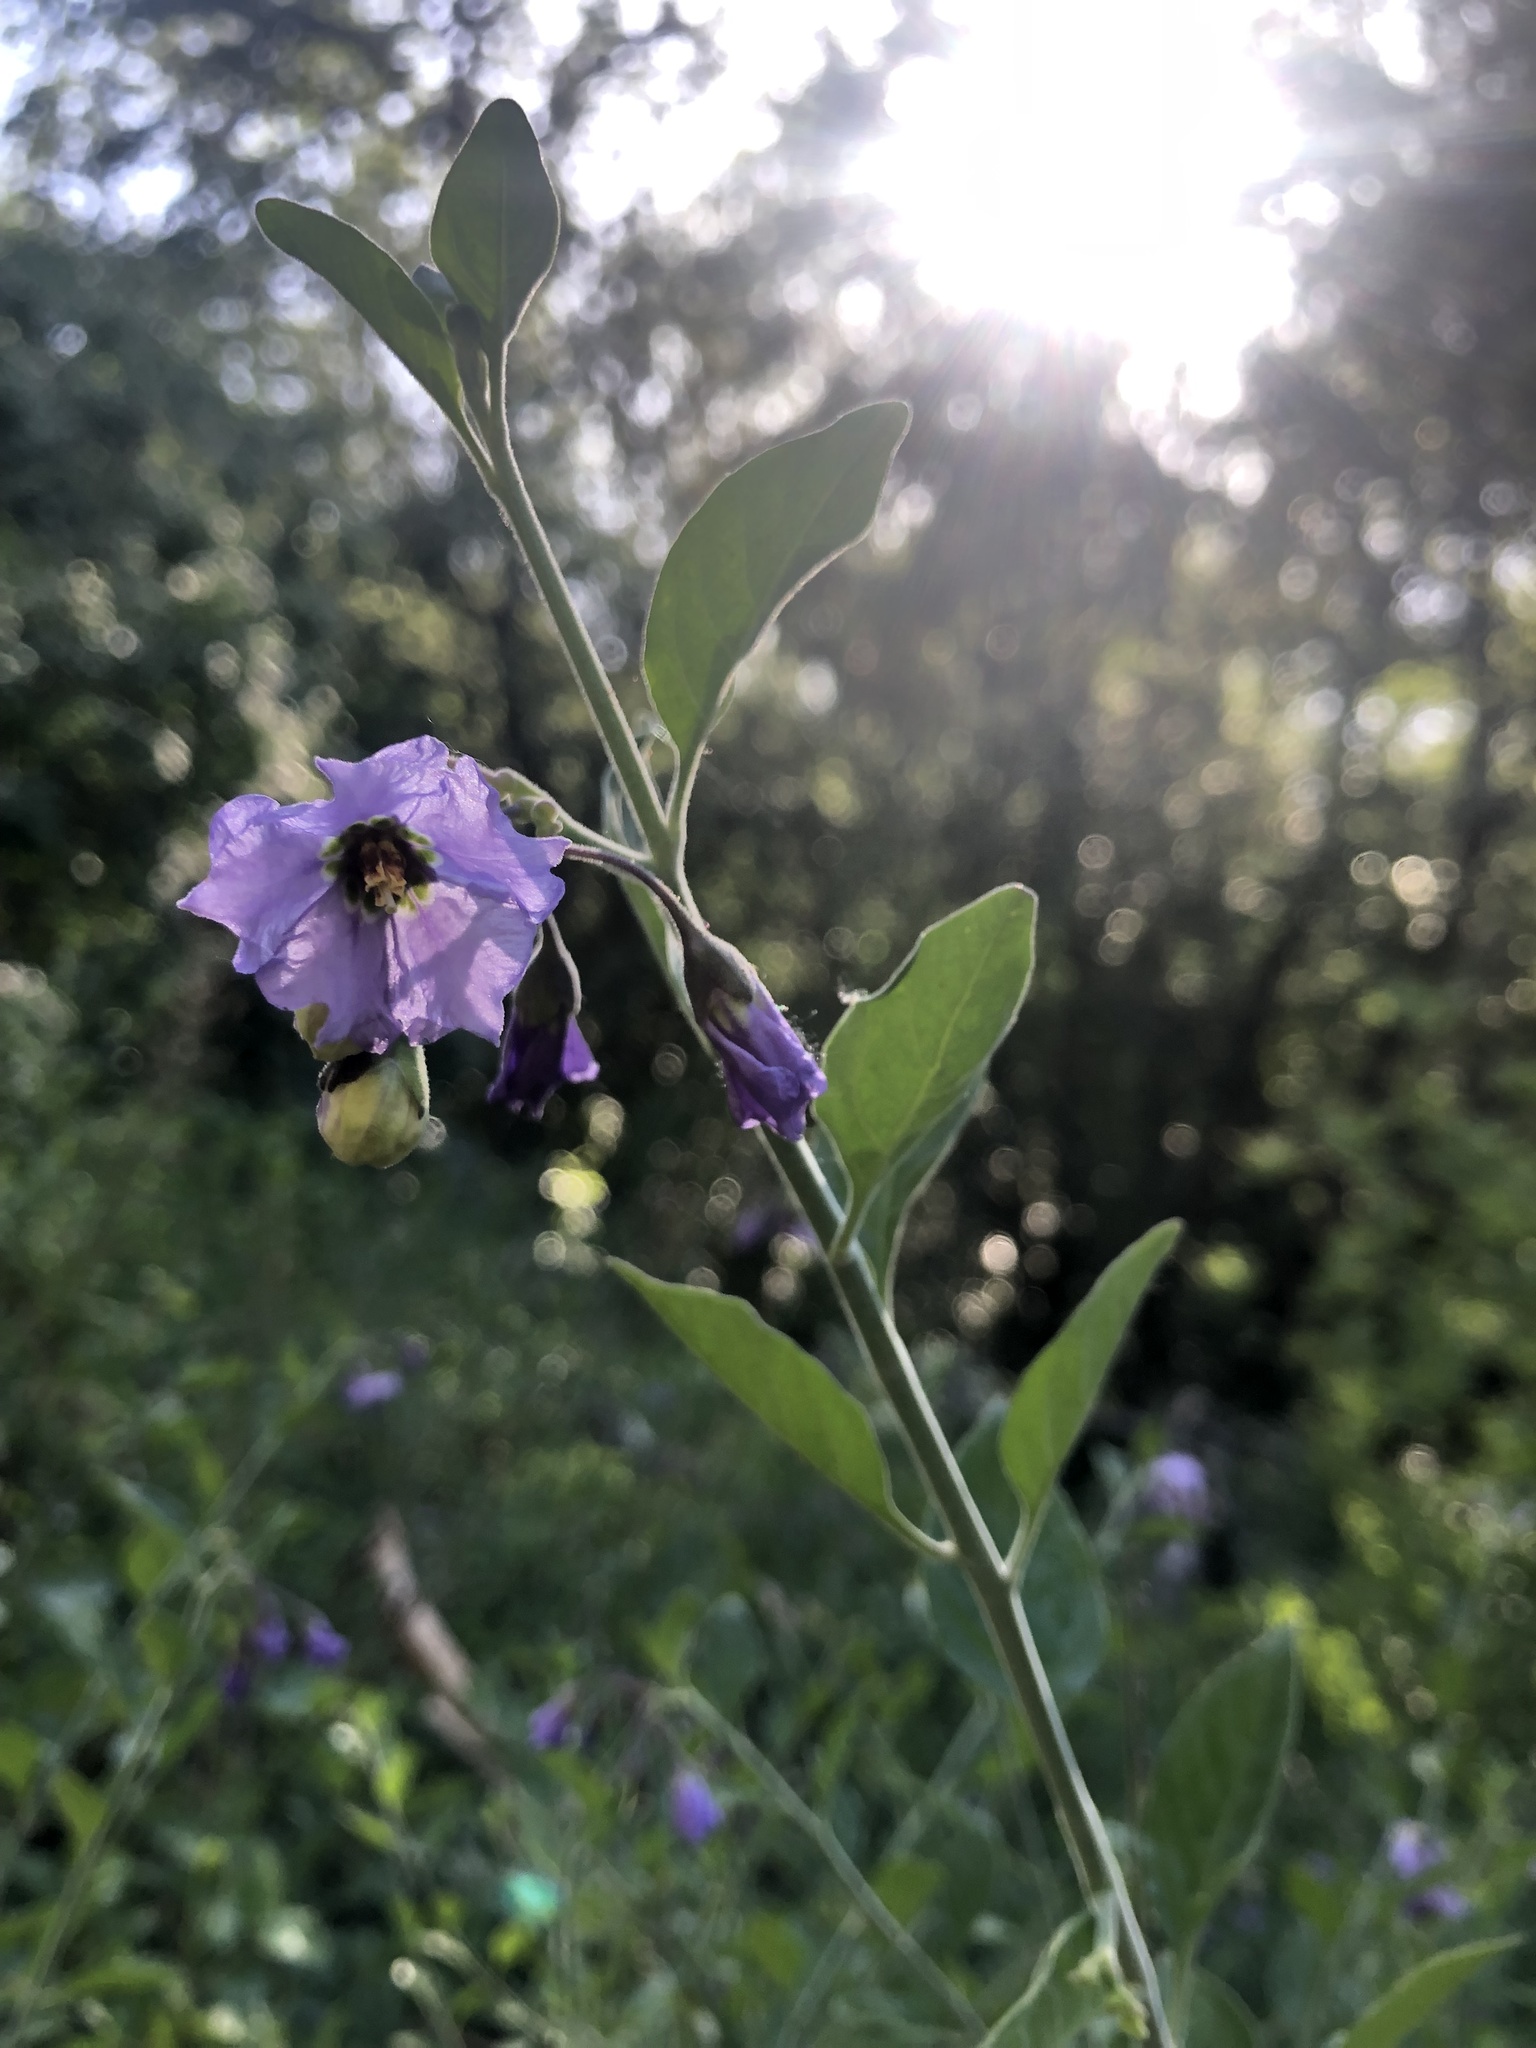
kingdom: Plantae
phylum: Tracheophyta
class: Magnoliopsida
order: Solanales
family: Solanaceae
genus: Solanum
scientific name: Solanum umbelliferum
